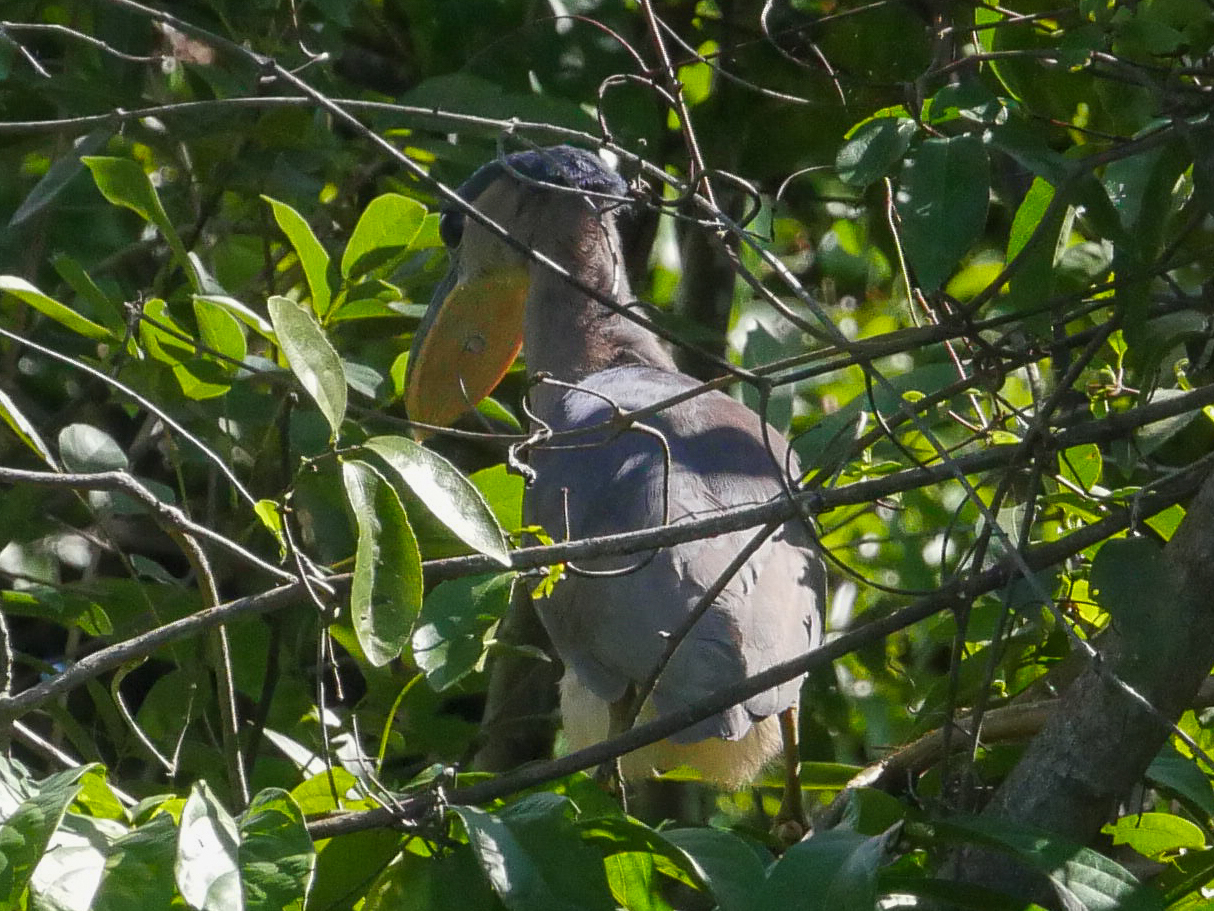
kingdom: Animalia
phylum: Chordata
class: Aves
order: Pelecaniformes
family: Ardeidae
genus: Cochlearius
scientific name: Cochlearius cochlearius
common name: Boat-billed heron
